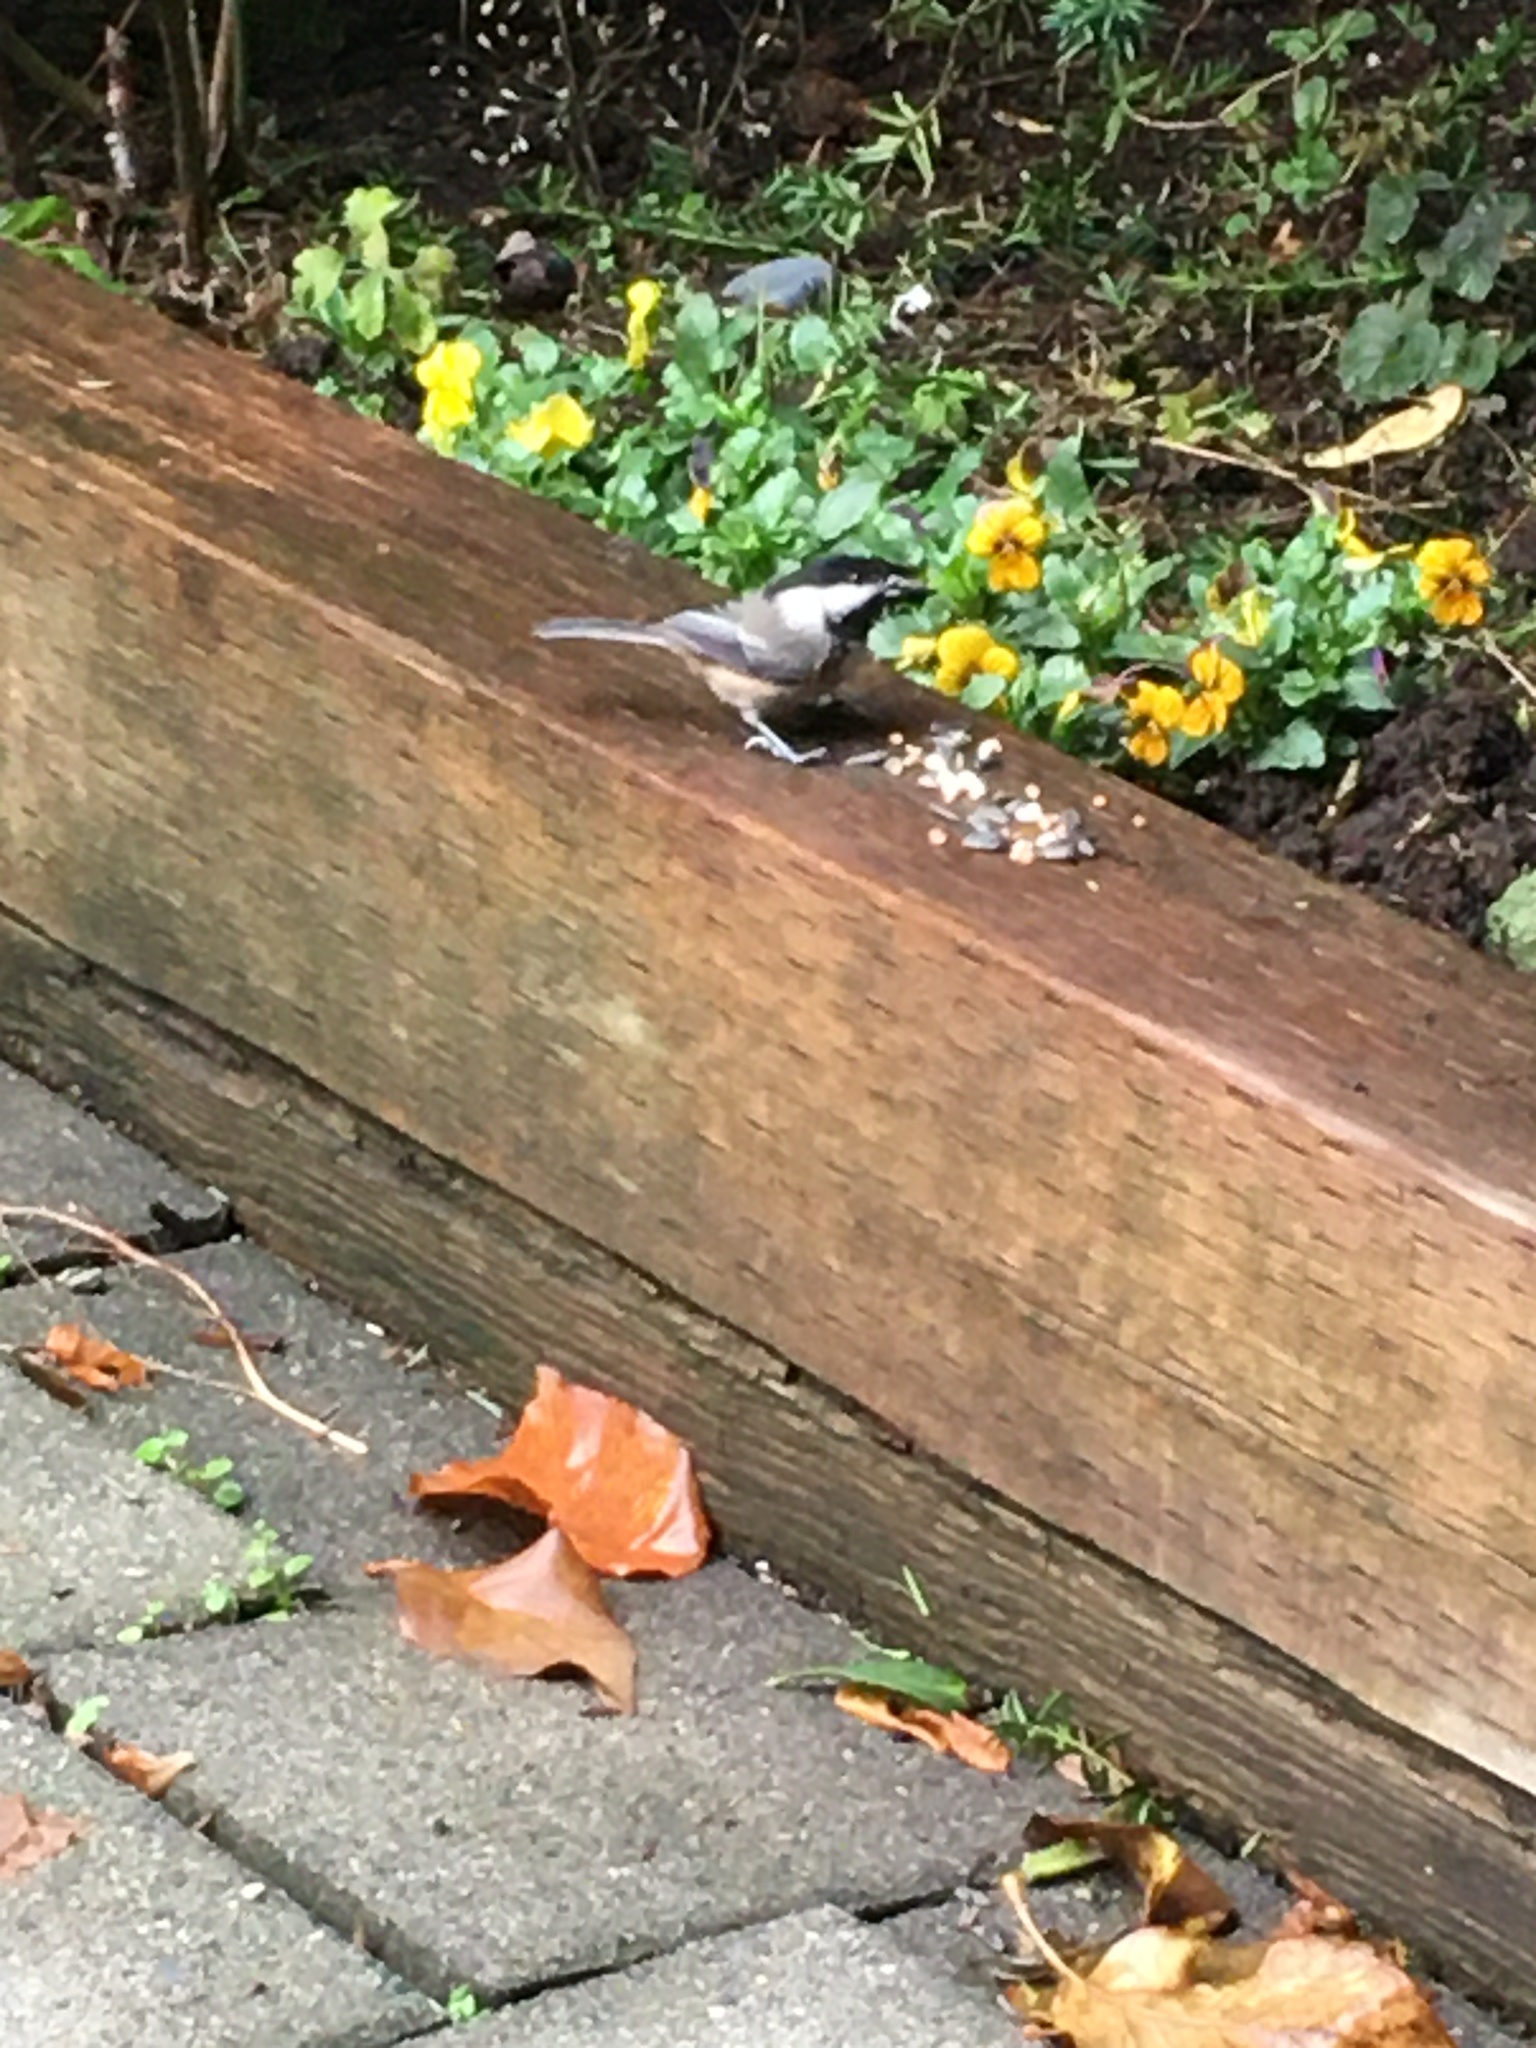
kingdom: Animalia
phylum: Chordata
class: Aves
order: Passeriformes
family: Paridae
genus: Poecile
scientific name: Poecile atricapillus
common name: Black-capped chickadee
